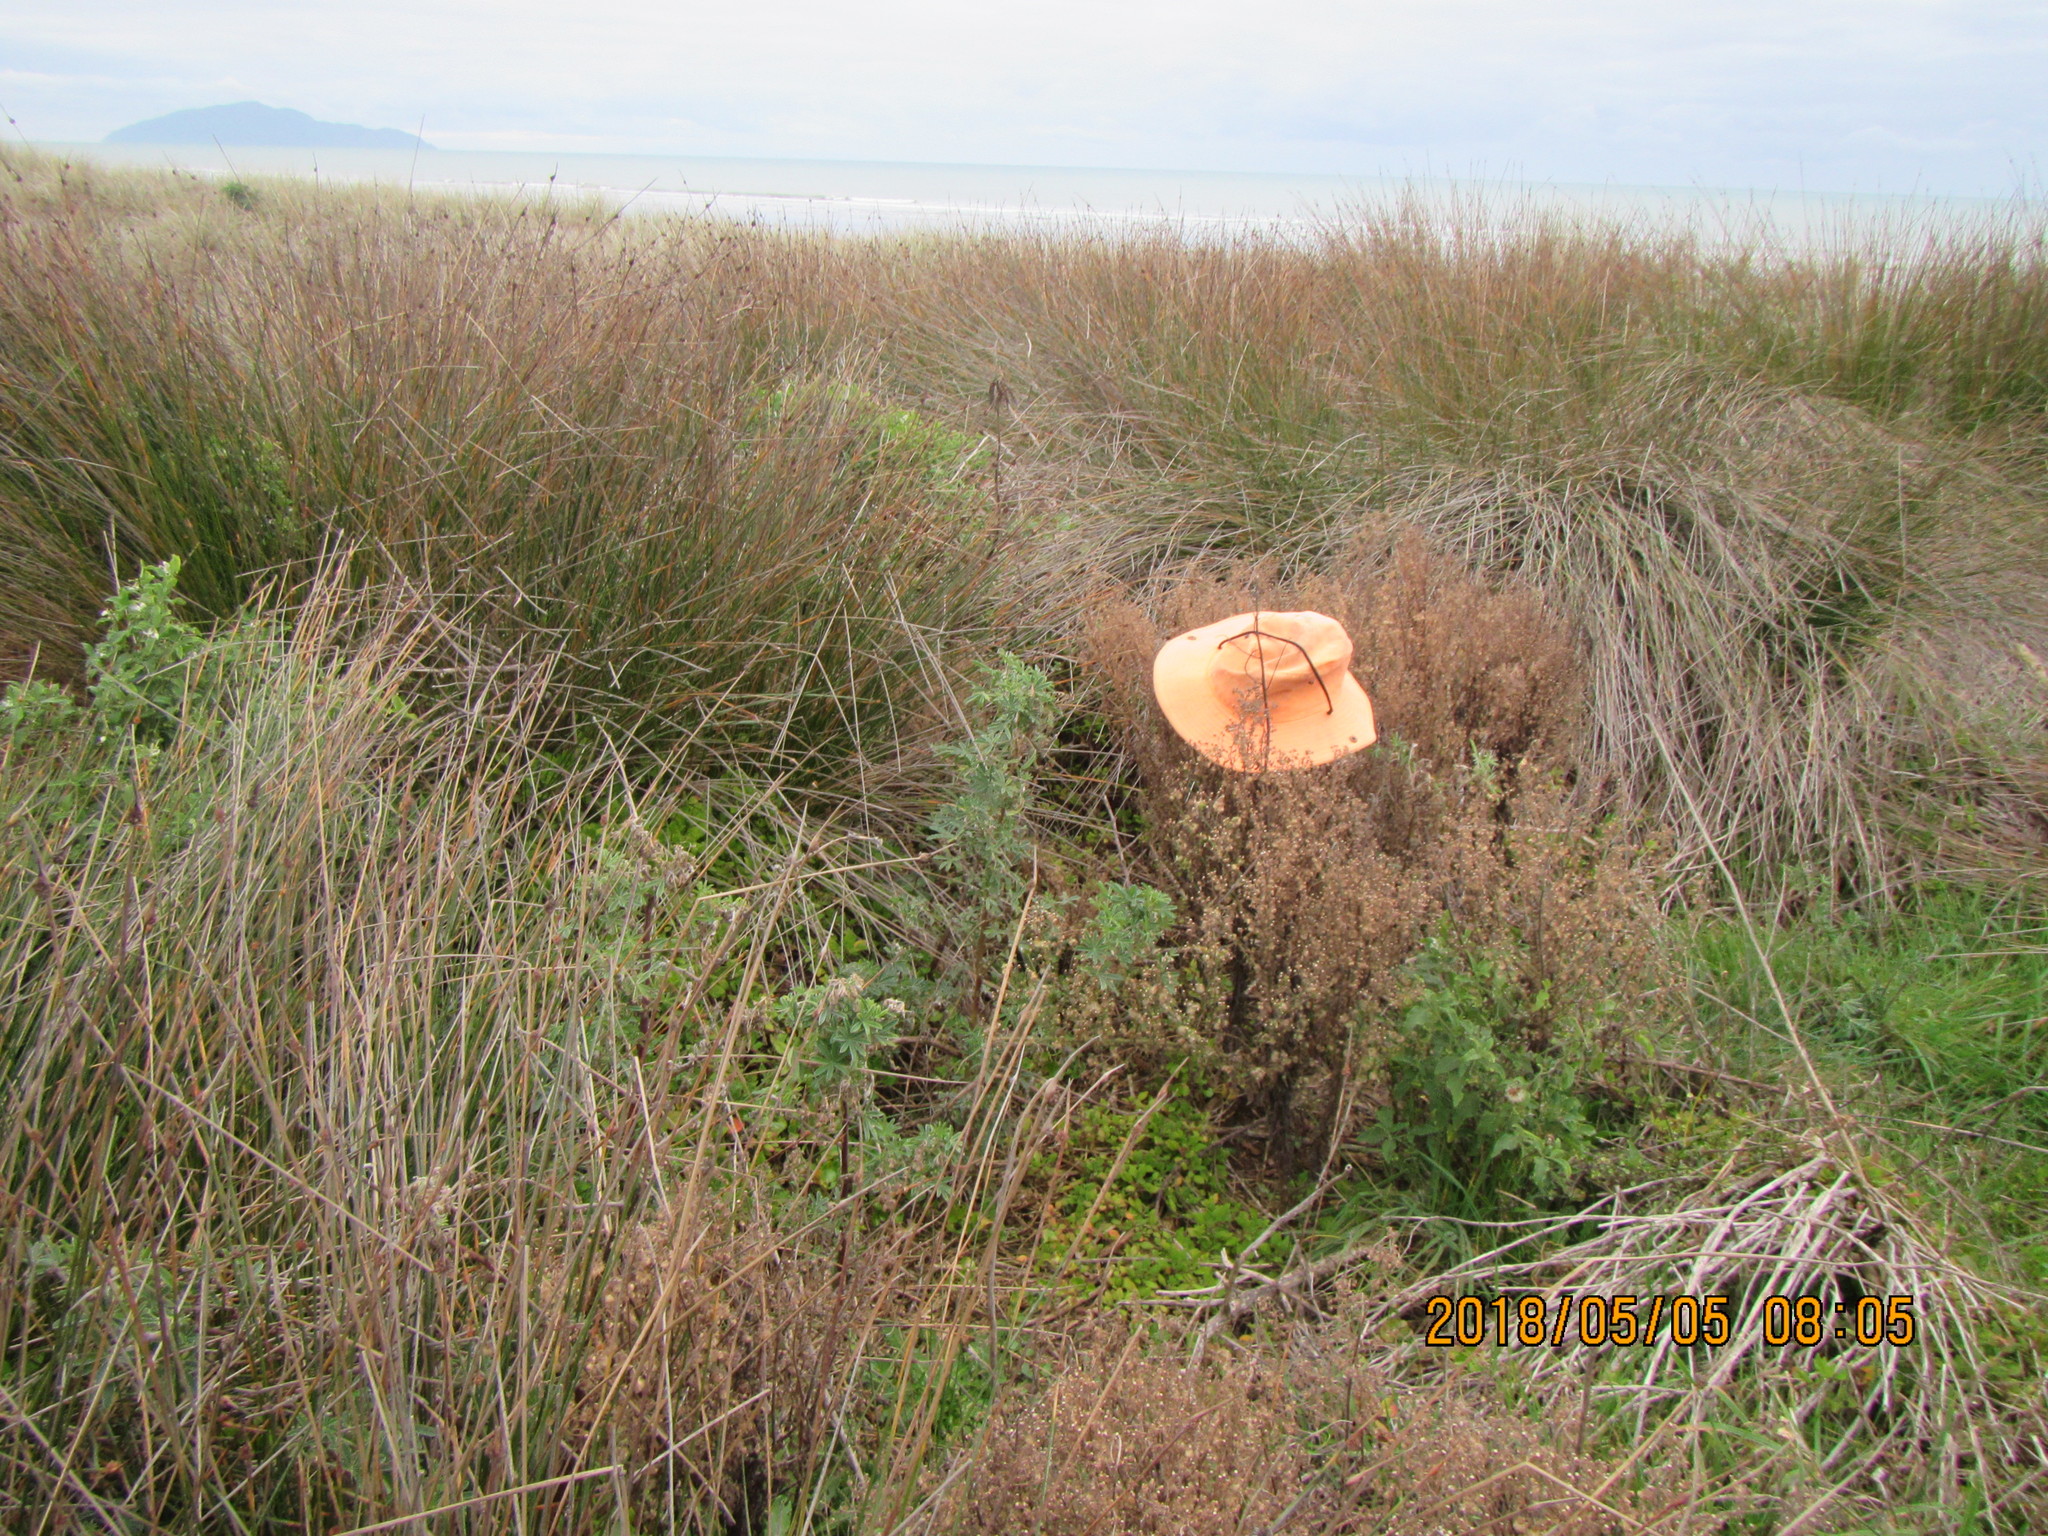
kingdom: Plantae
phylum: Tracheophyta
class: Magnoliopsida
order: Fabales
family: Fabaceae
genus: Lupinus
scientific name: Lupinus arboreus
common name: Yellow bush lupine
